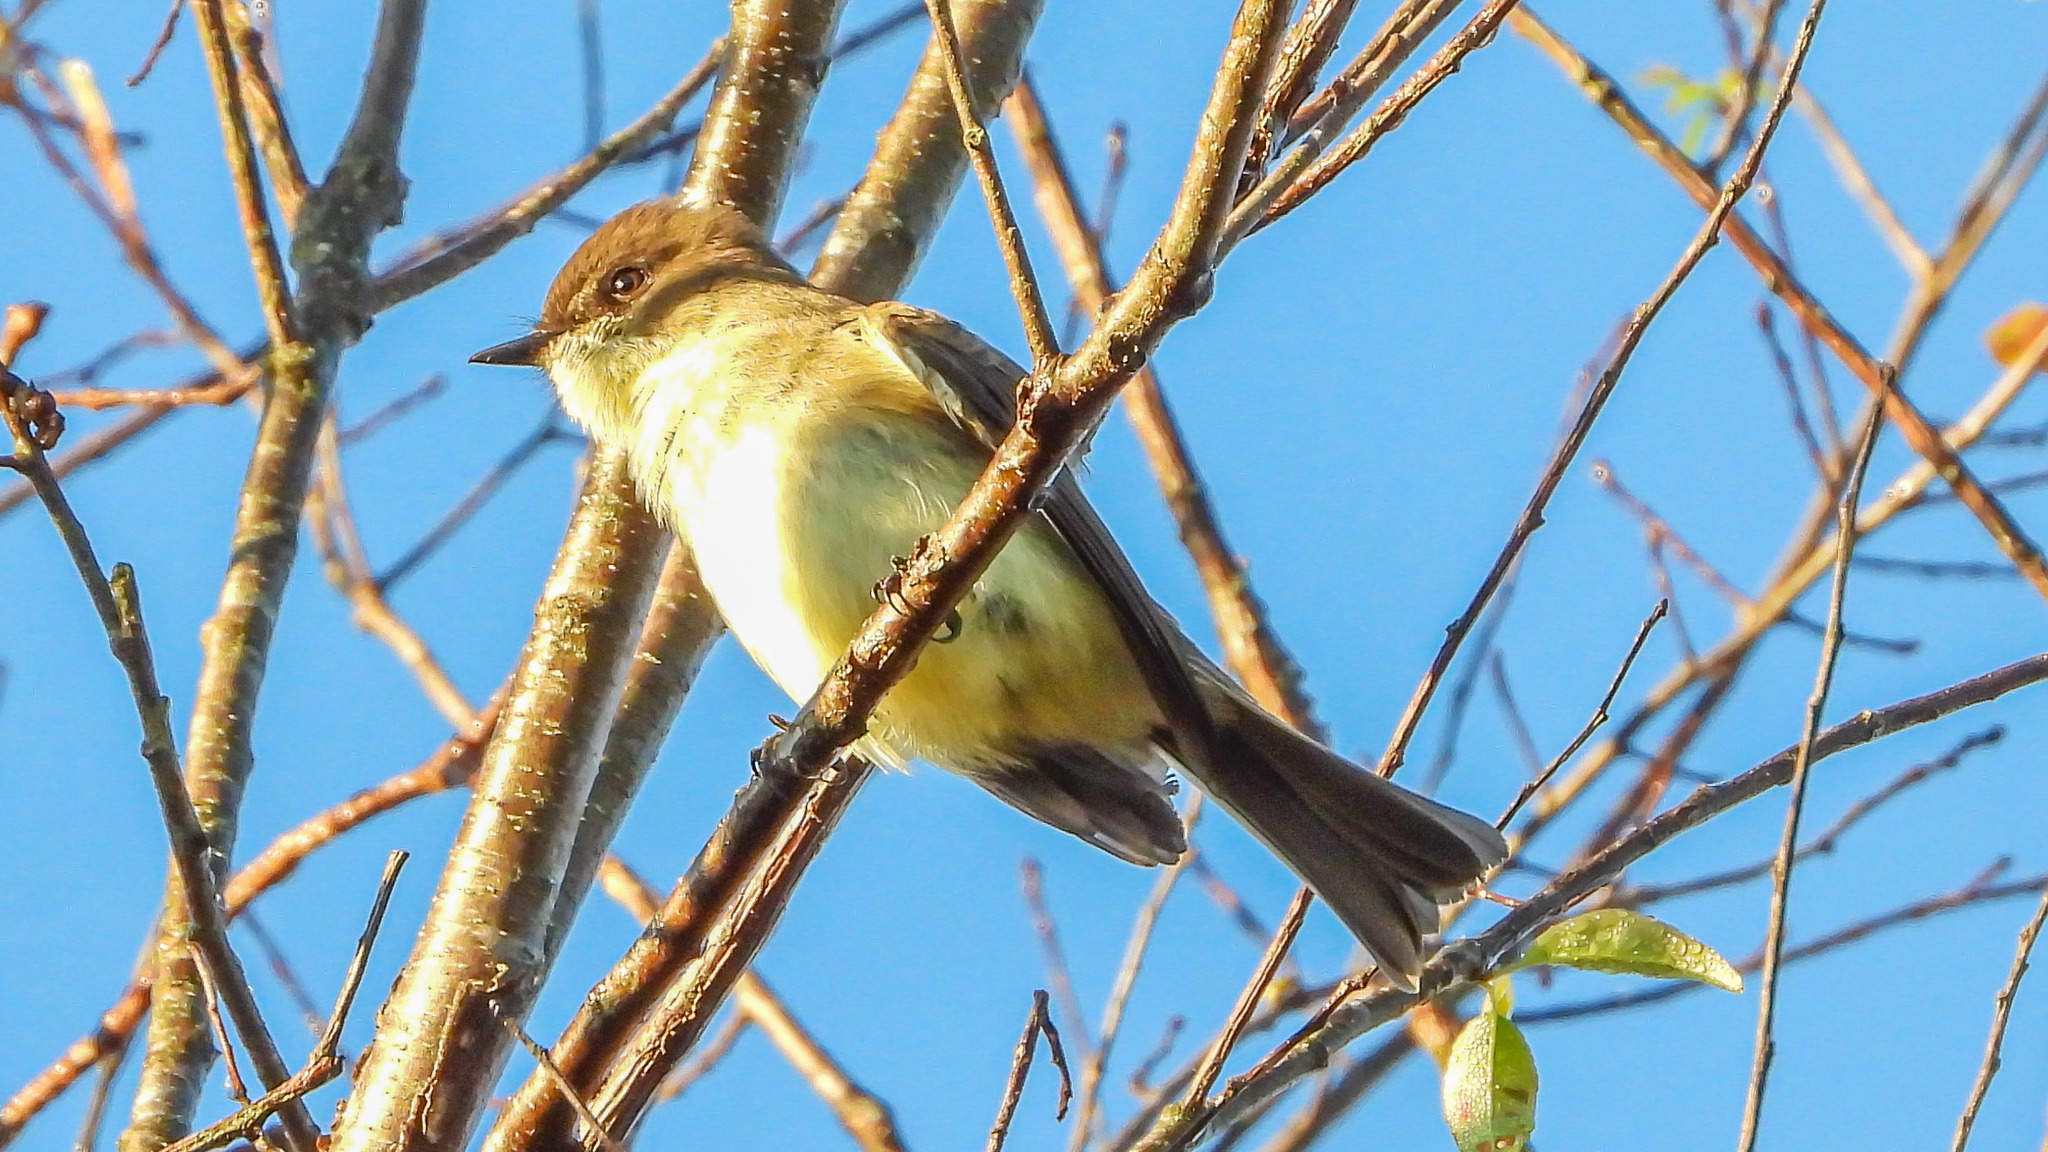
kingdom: Animalia
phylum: Chordata
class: Aves
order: Passeriformes
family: Tyrannidae
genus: Sayornis
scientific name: Sayornis phoebe
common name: Eastern phoebe
